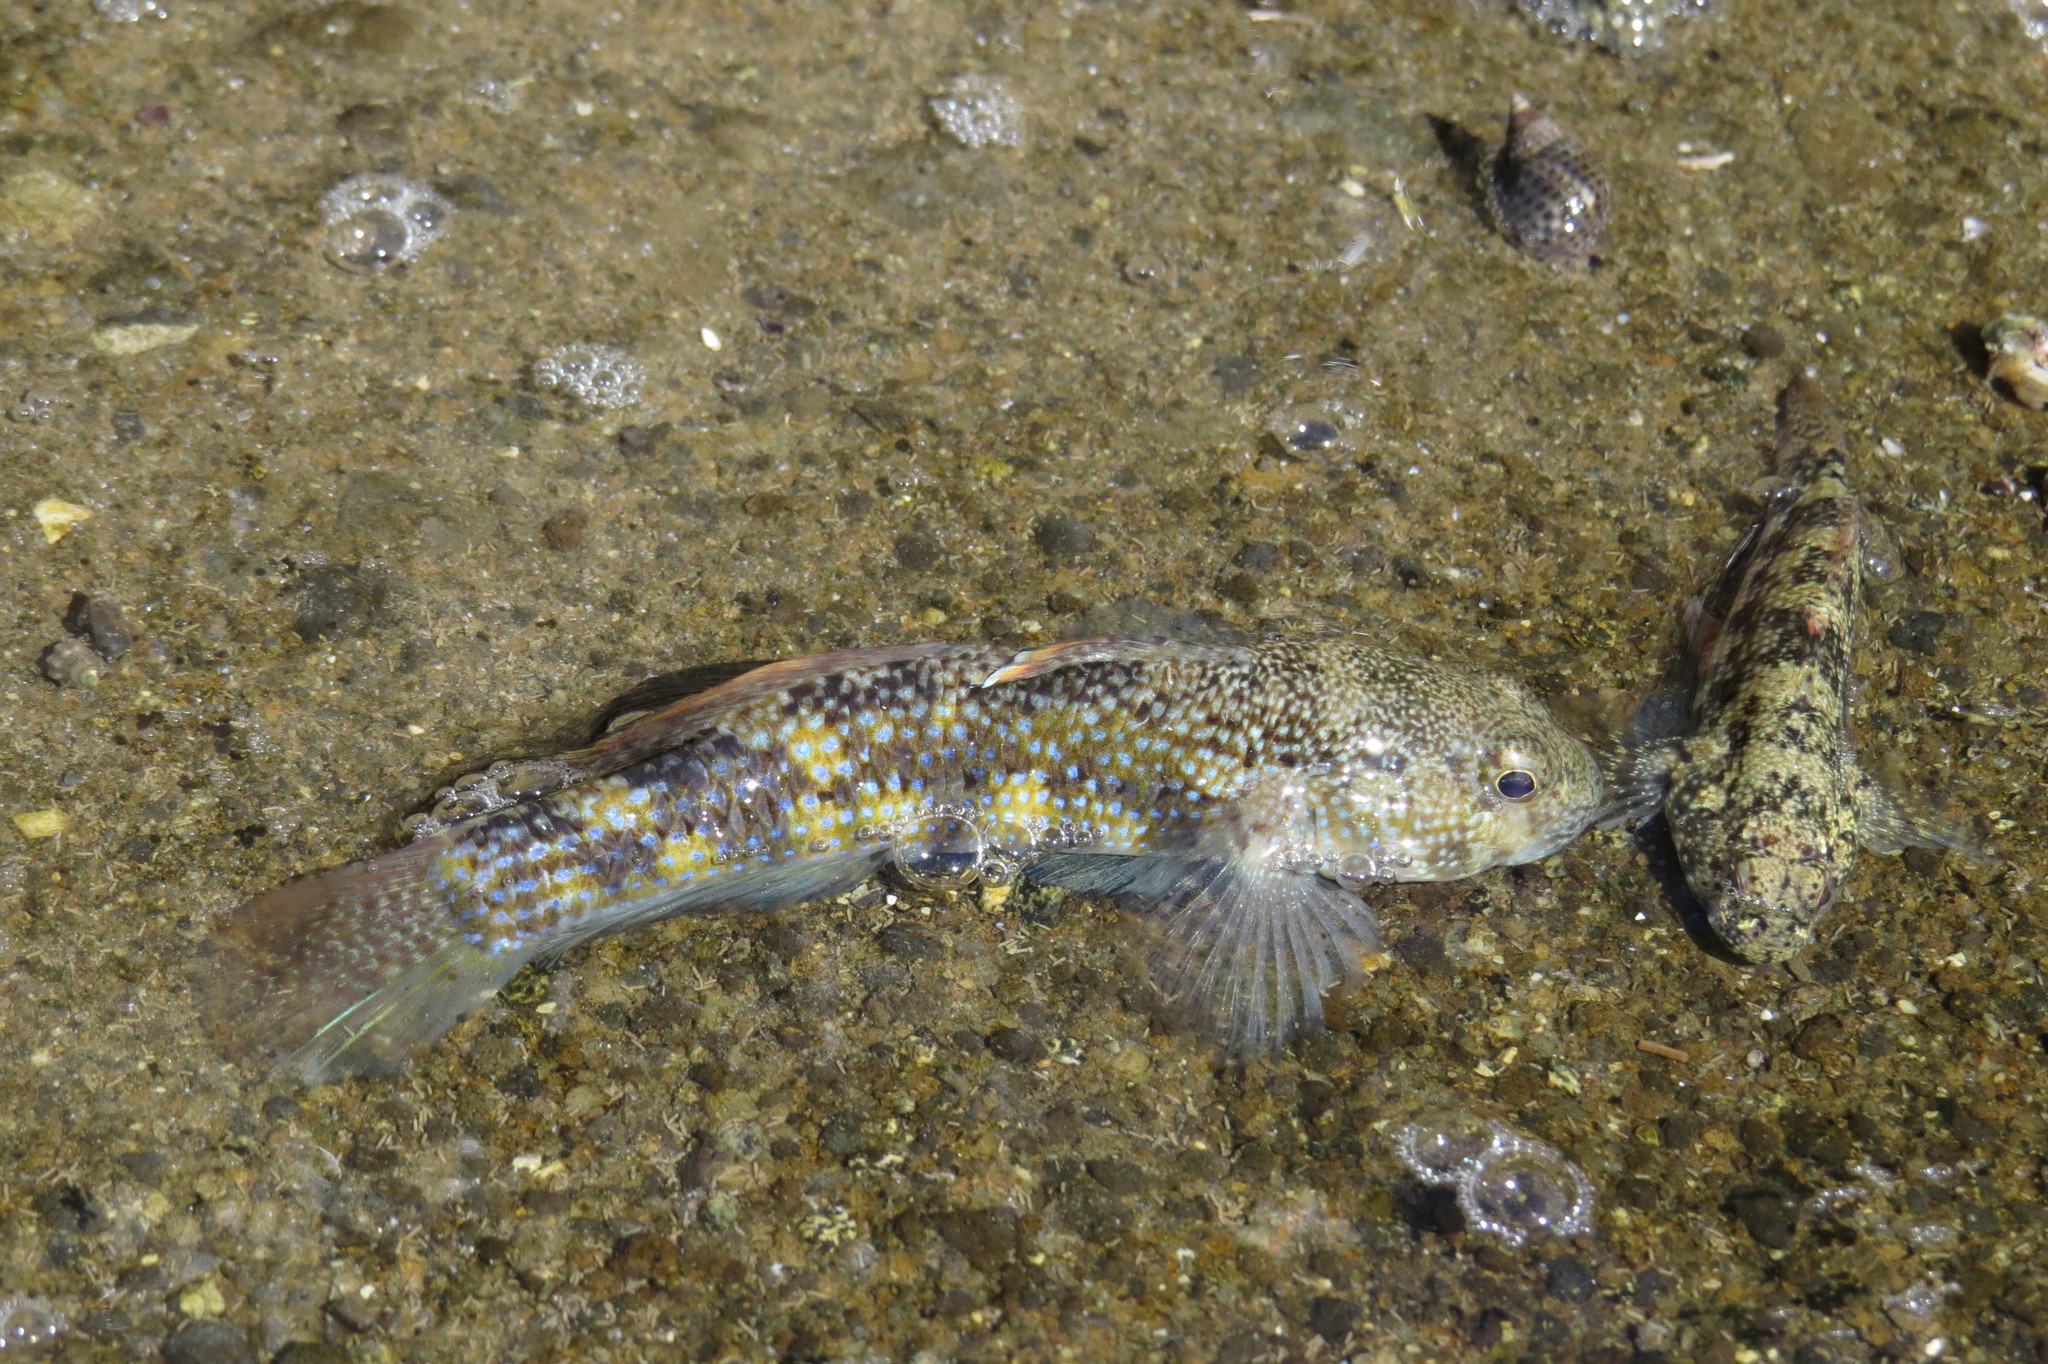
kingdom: Animalia
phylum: Chordata
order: Perciformes
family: Gobiidae
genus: Bathygobius
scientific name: Bathygobius fuscus
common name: Dusky frillgoby
